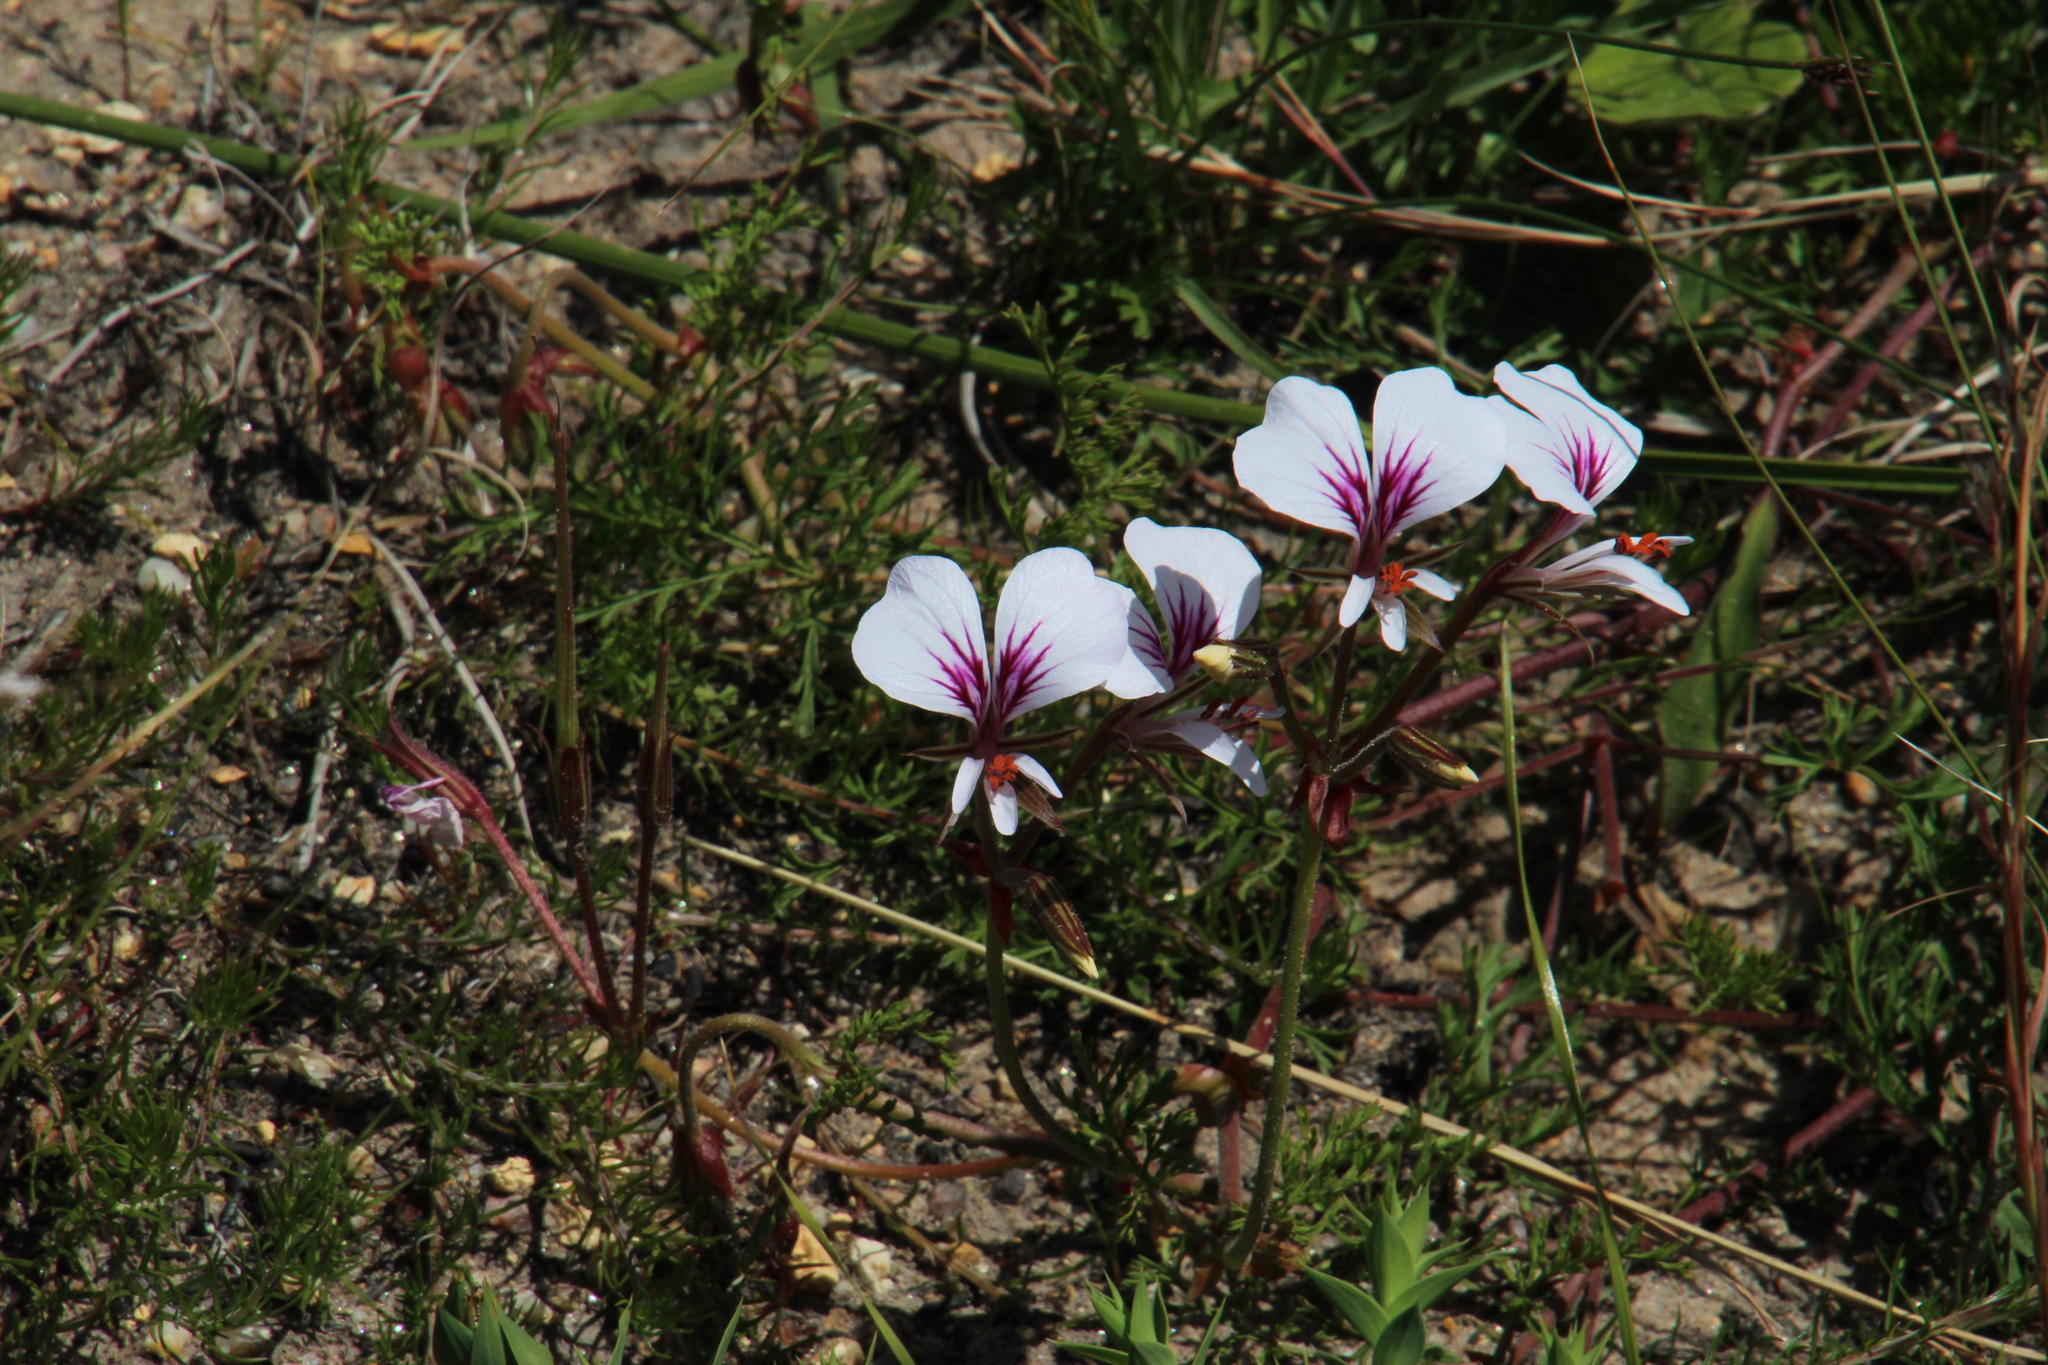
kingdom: Plantae
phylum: Tracheophyta
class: Magnoliopsida
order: Geraniales
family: Geraniaceae
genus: Pelargonium
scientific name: Pelargonium longicaule
